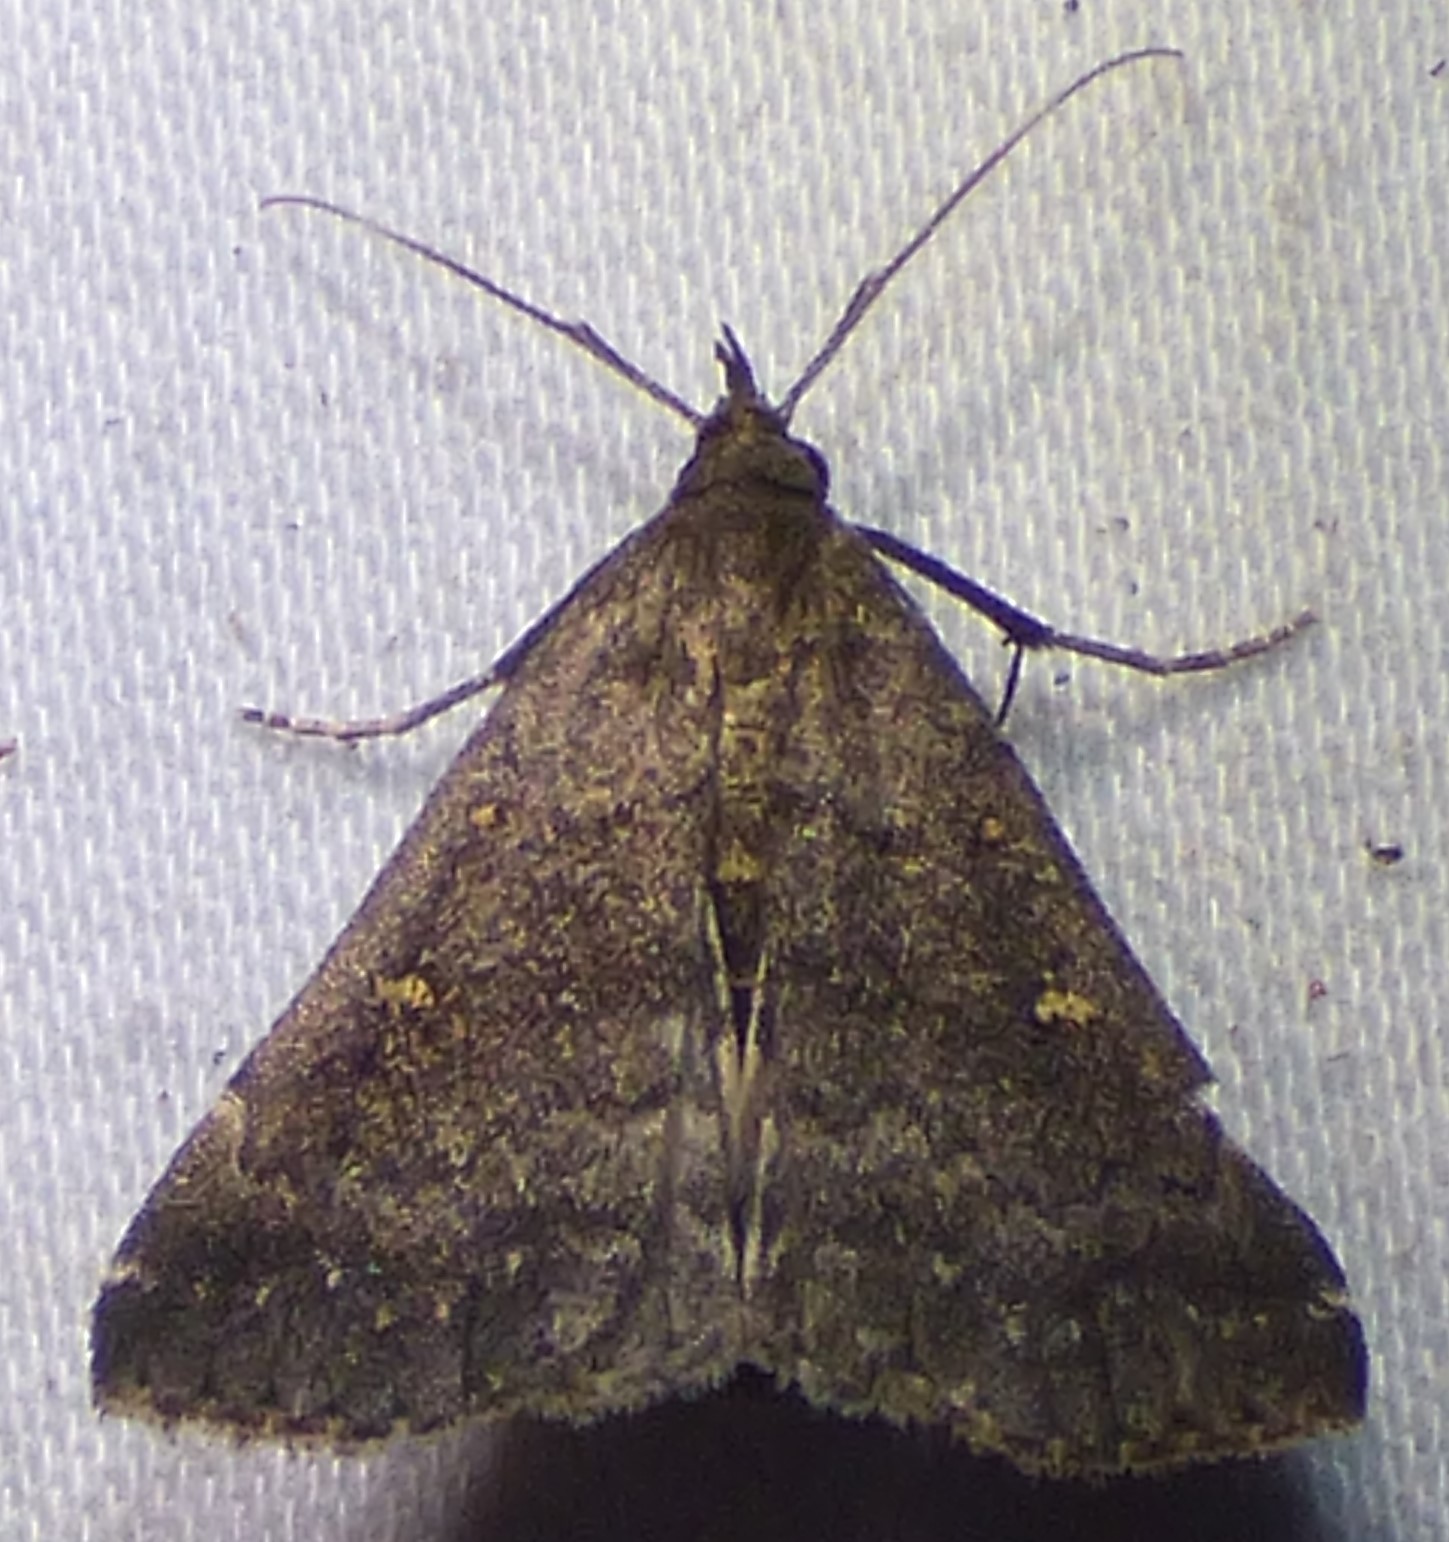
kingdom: Animalia
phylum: Arthropoda
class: Insecta
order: Lepidoptera
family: Erebidae
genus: Tetanolita
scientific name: Tetanolita mynesalis
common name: Smoky tetanolita moth
